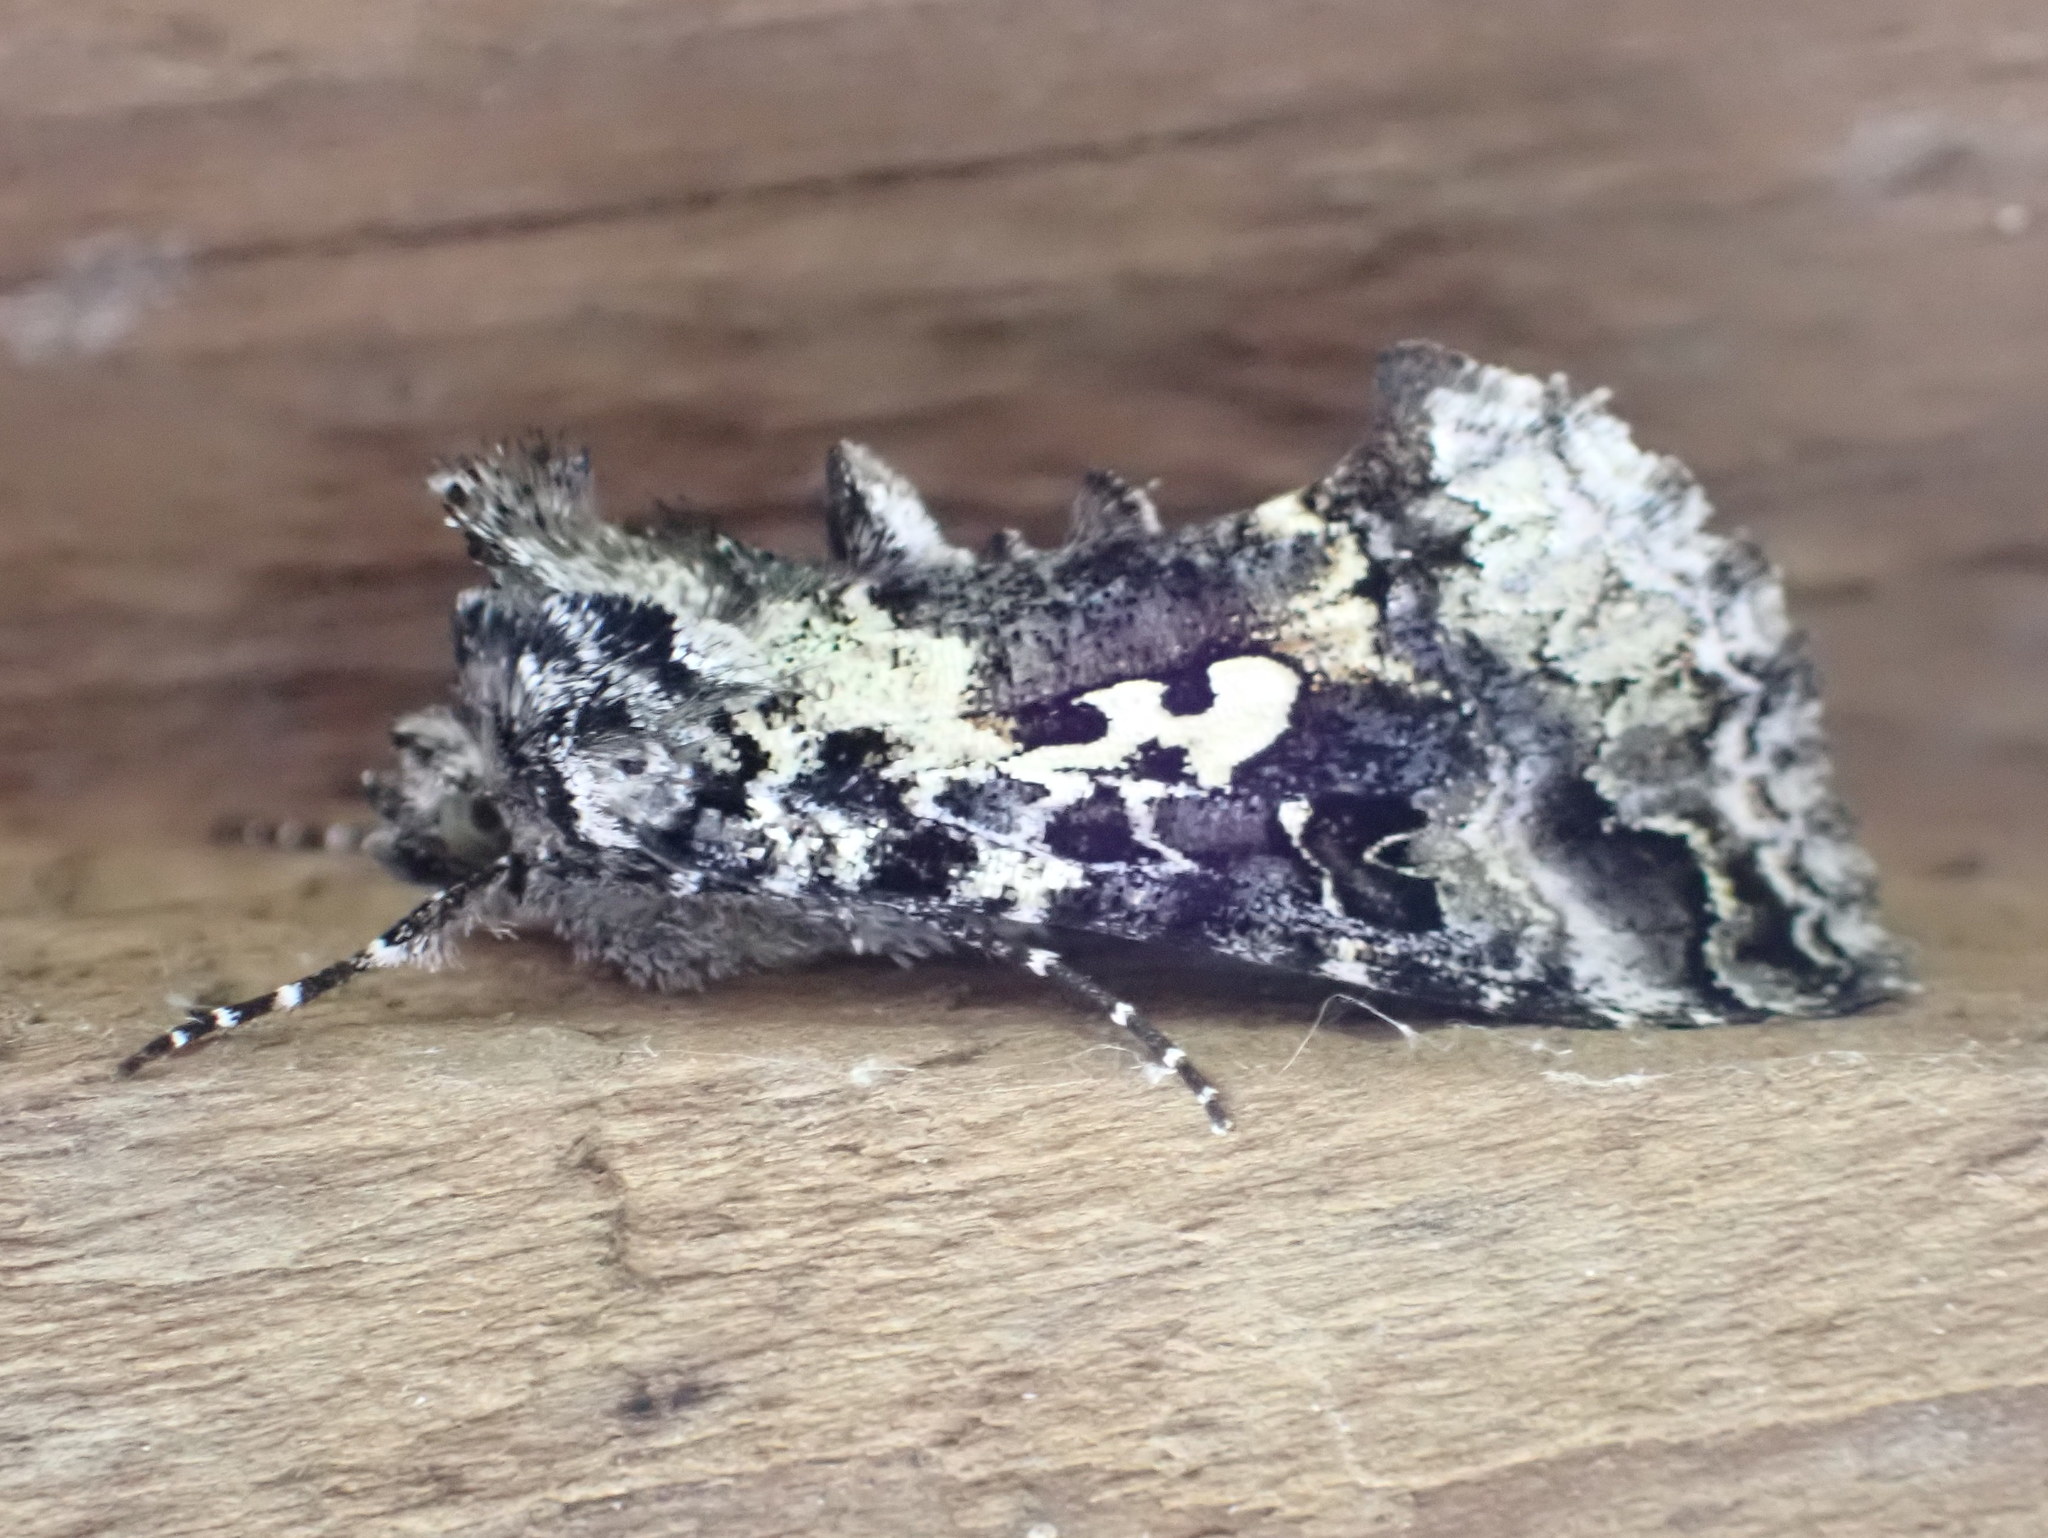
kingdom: Animalia
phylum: Arthropoda
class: Insecta
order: Lepidoptera
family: Noctuidae
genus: Syngrapha
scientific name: Syngrapha rectangula
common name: Angulated cutworm
